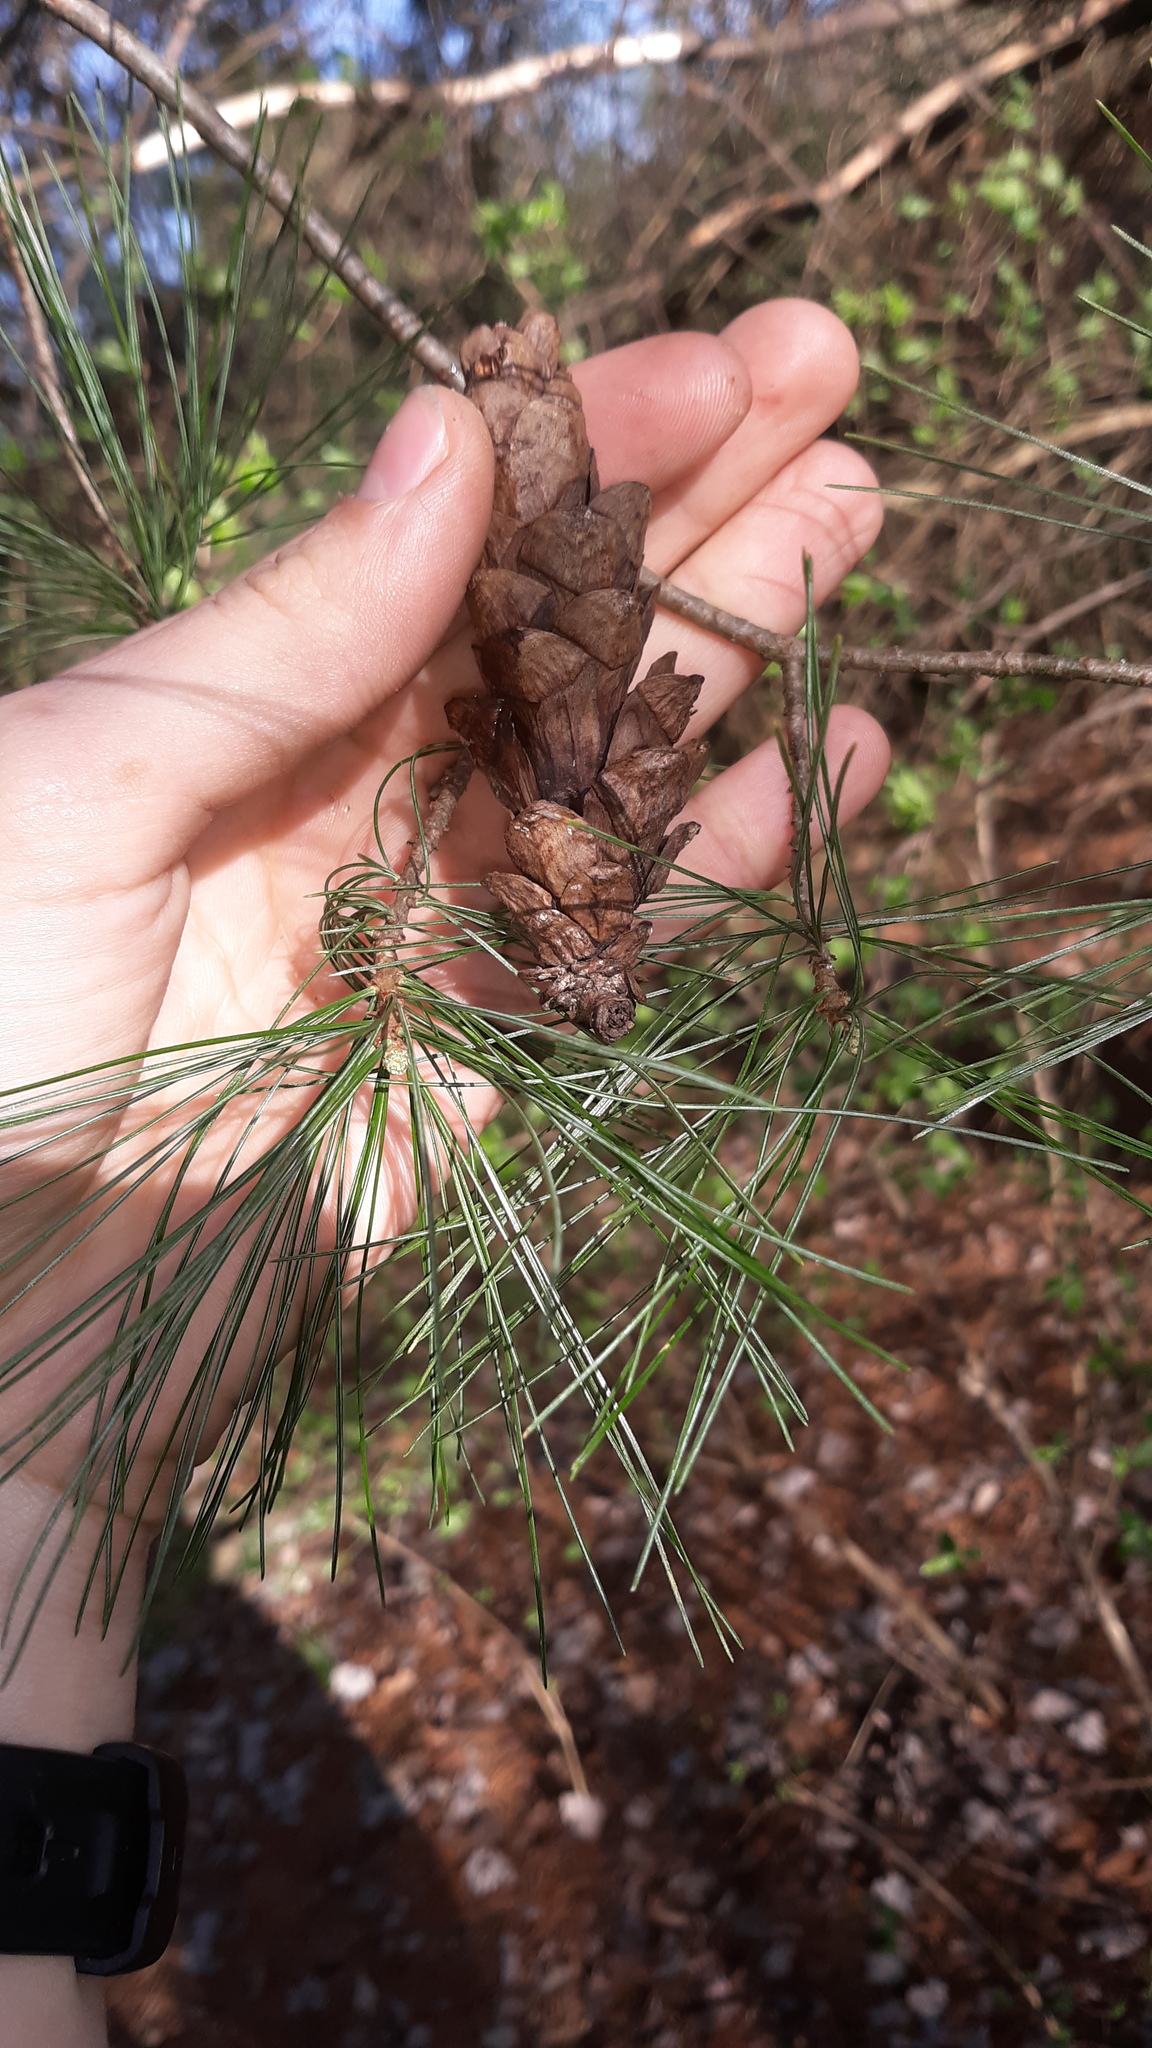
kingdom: Plantae
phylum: Tracheophyta
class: Pinopsida
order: Pinales
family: Pinaceae
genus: Pinus
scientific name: Pinus strobus
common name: Weymouth pine
